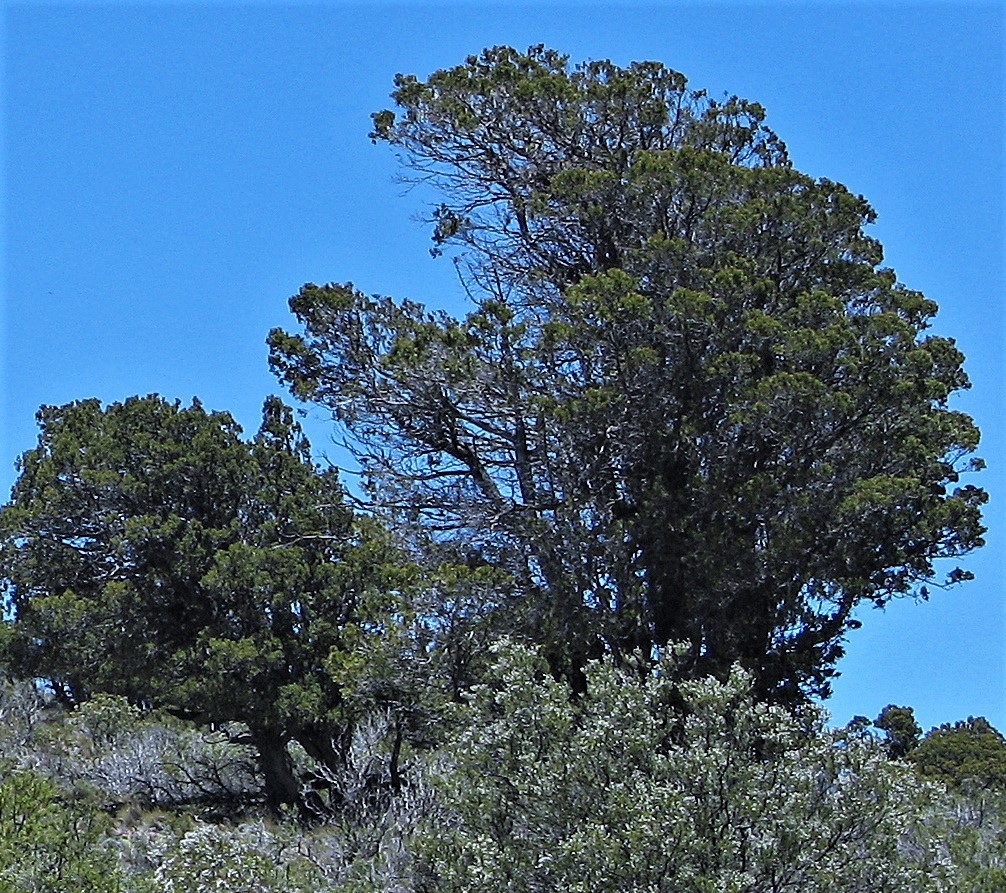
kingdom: Plantae
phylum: Tracheophyta
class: Pinopsida
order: Pinales
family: Cupressaceae
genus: Austrocedrus
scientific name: Austrocedrus chilensis
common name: Chilean incense-cedar
